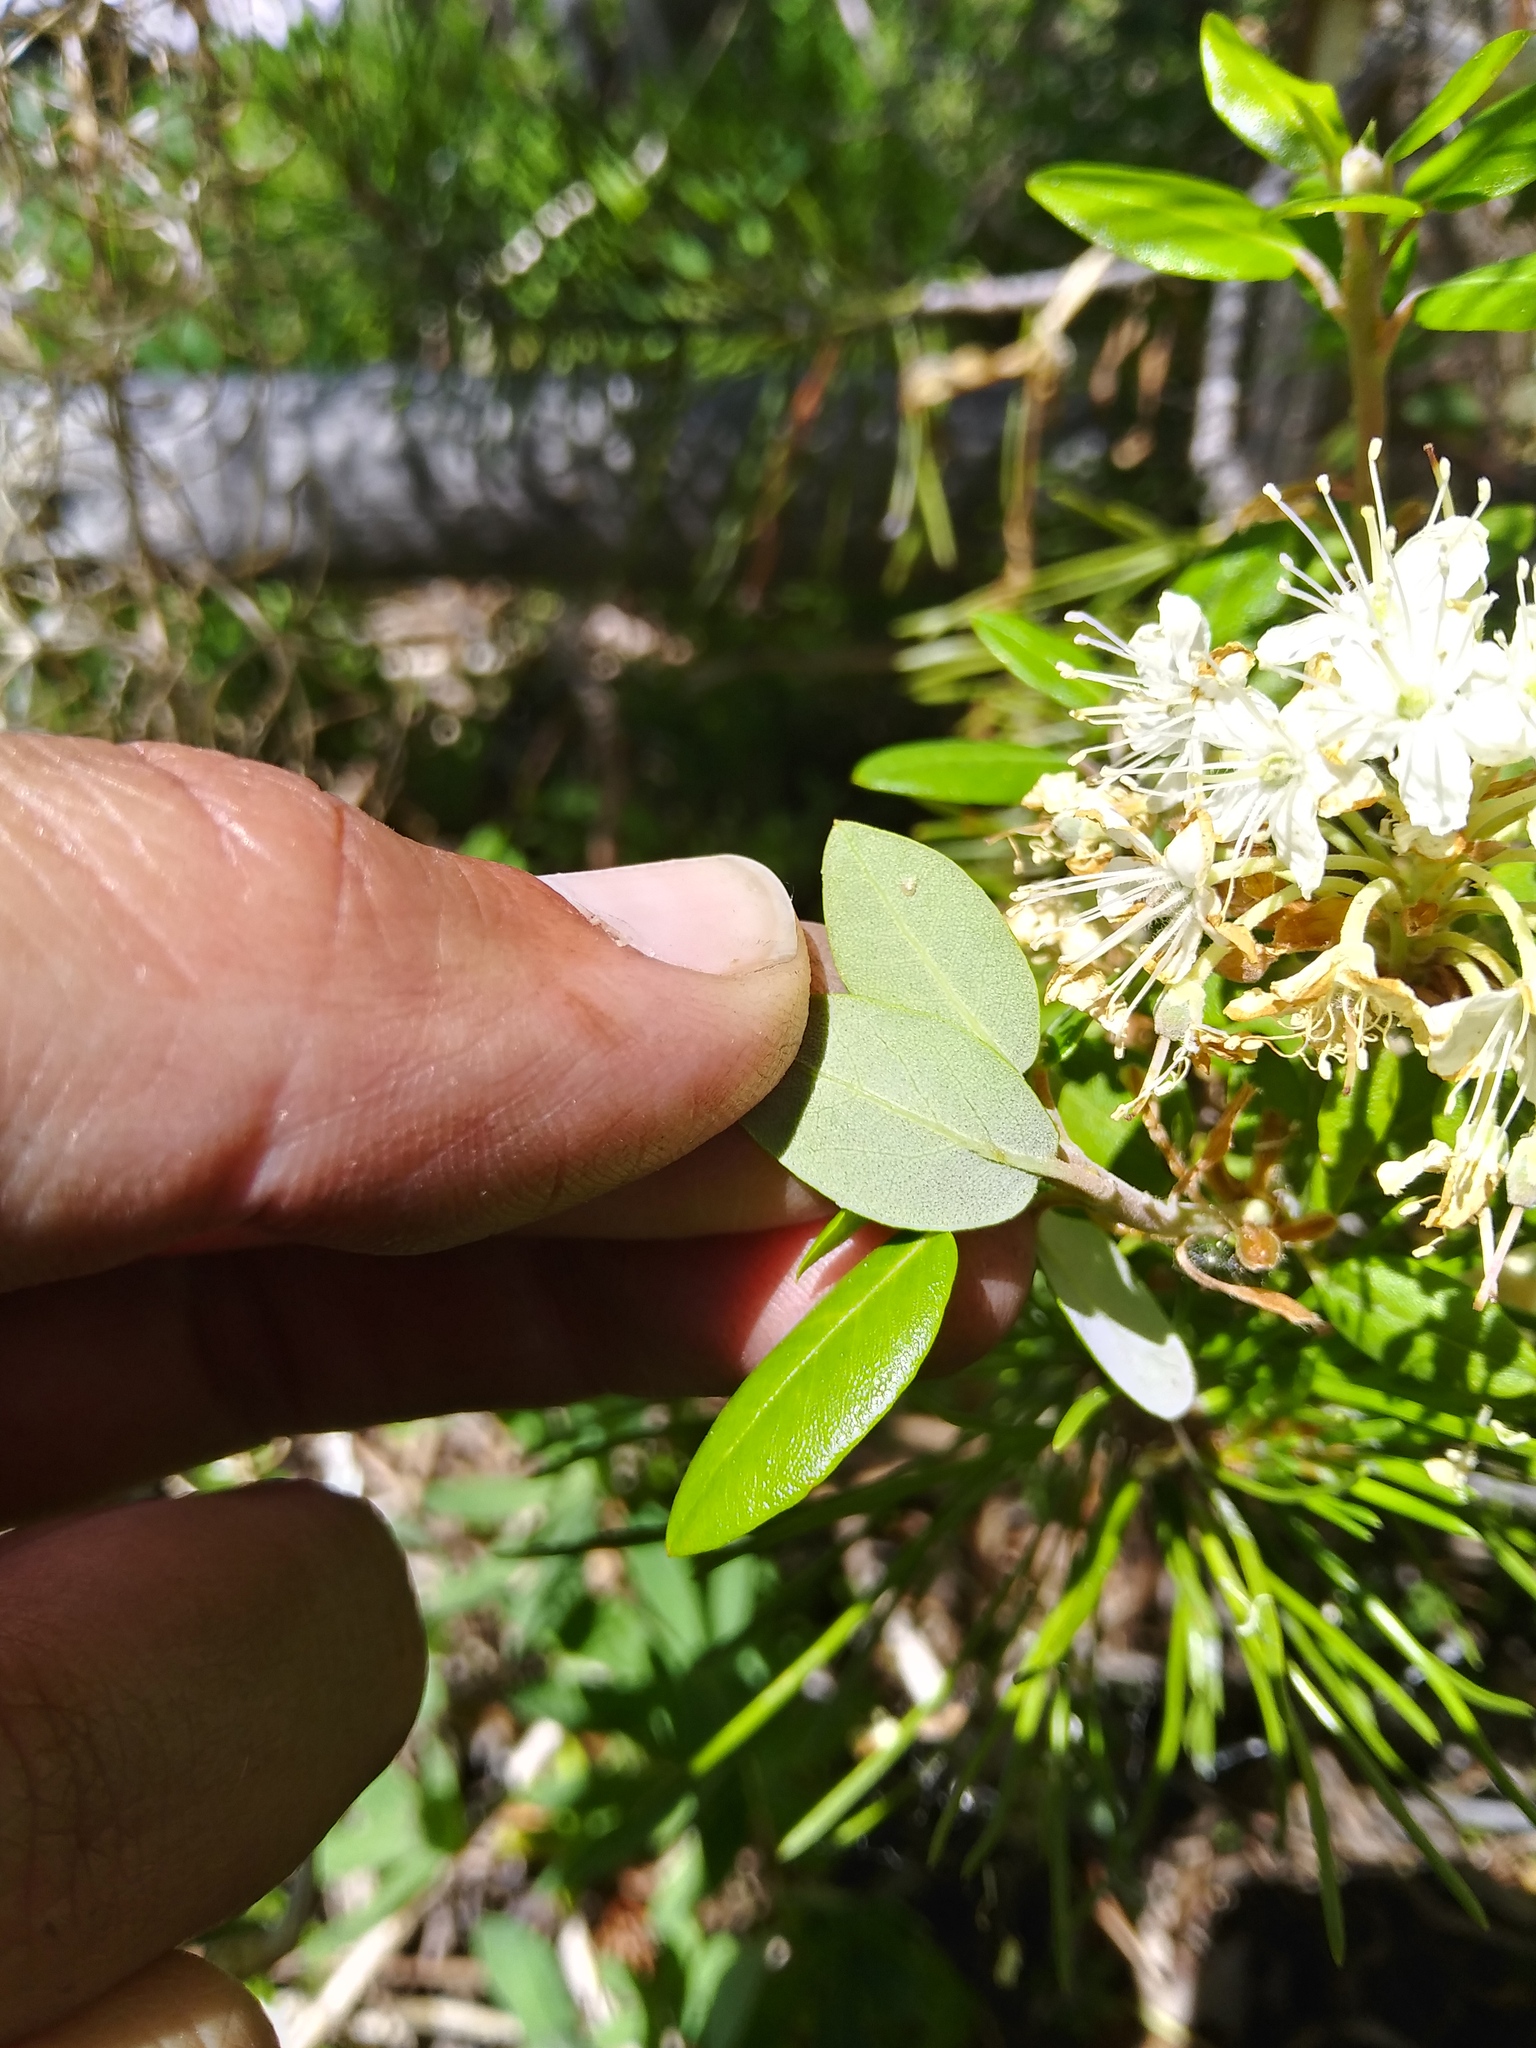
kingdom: Plantae
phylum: Tracheophyta
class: Magnoliopsida
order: Ericales
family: Ericaceae
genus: Rhododendron
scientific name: Rhododendron columbianum
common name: Western labrador tea
